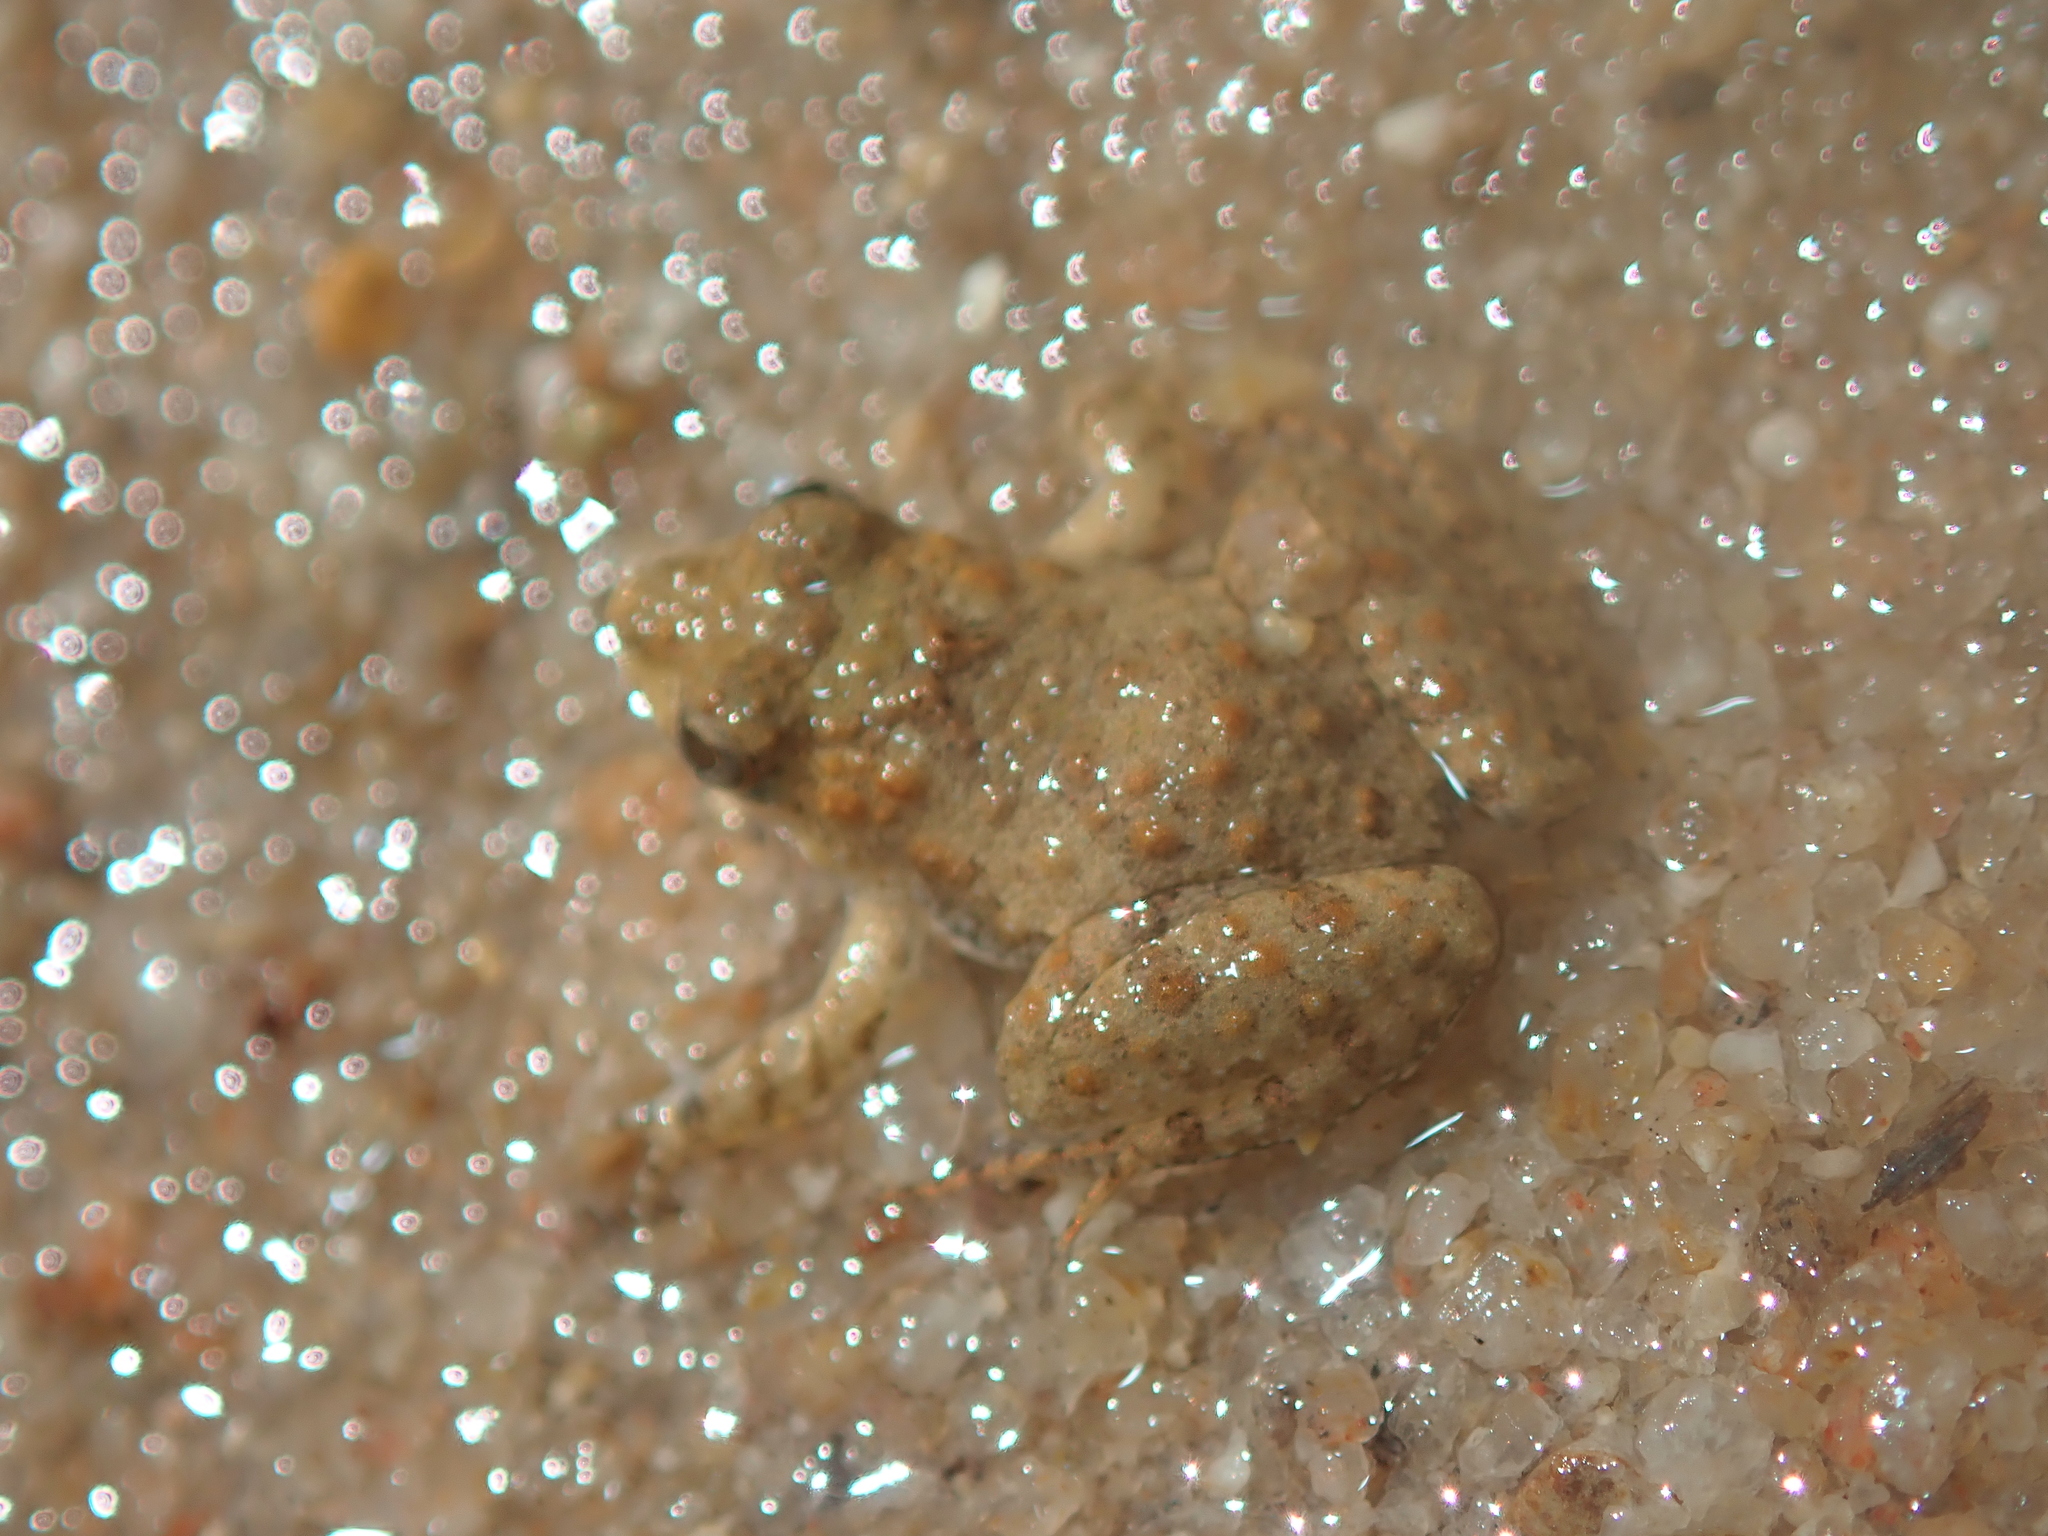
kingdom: Animalia
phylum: Chordata
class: Amphibia
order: Anura
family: Leptodactylidae
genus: Pseudopaludicola
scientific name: Pseudopaludicola canga
